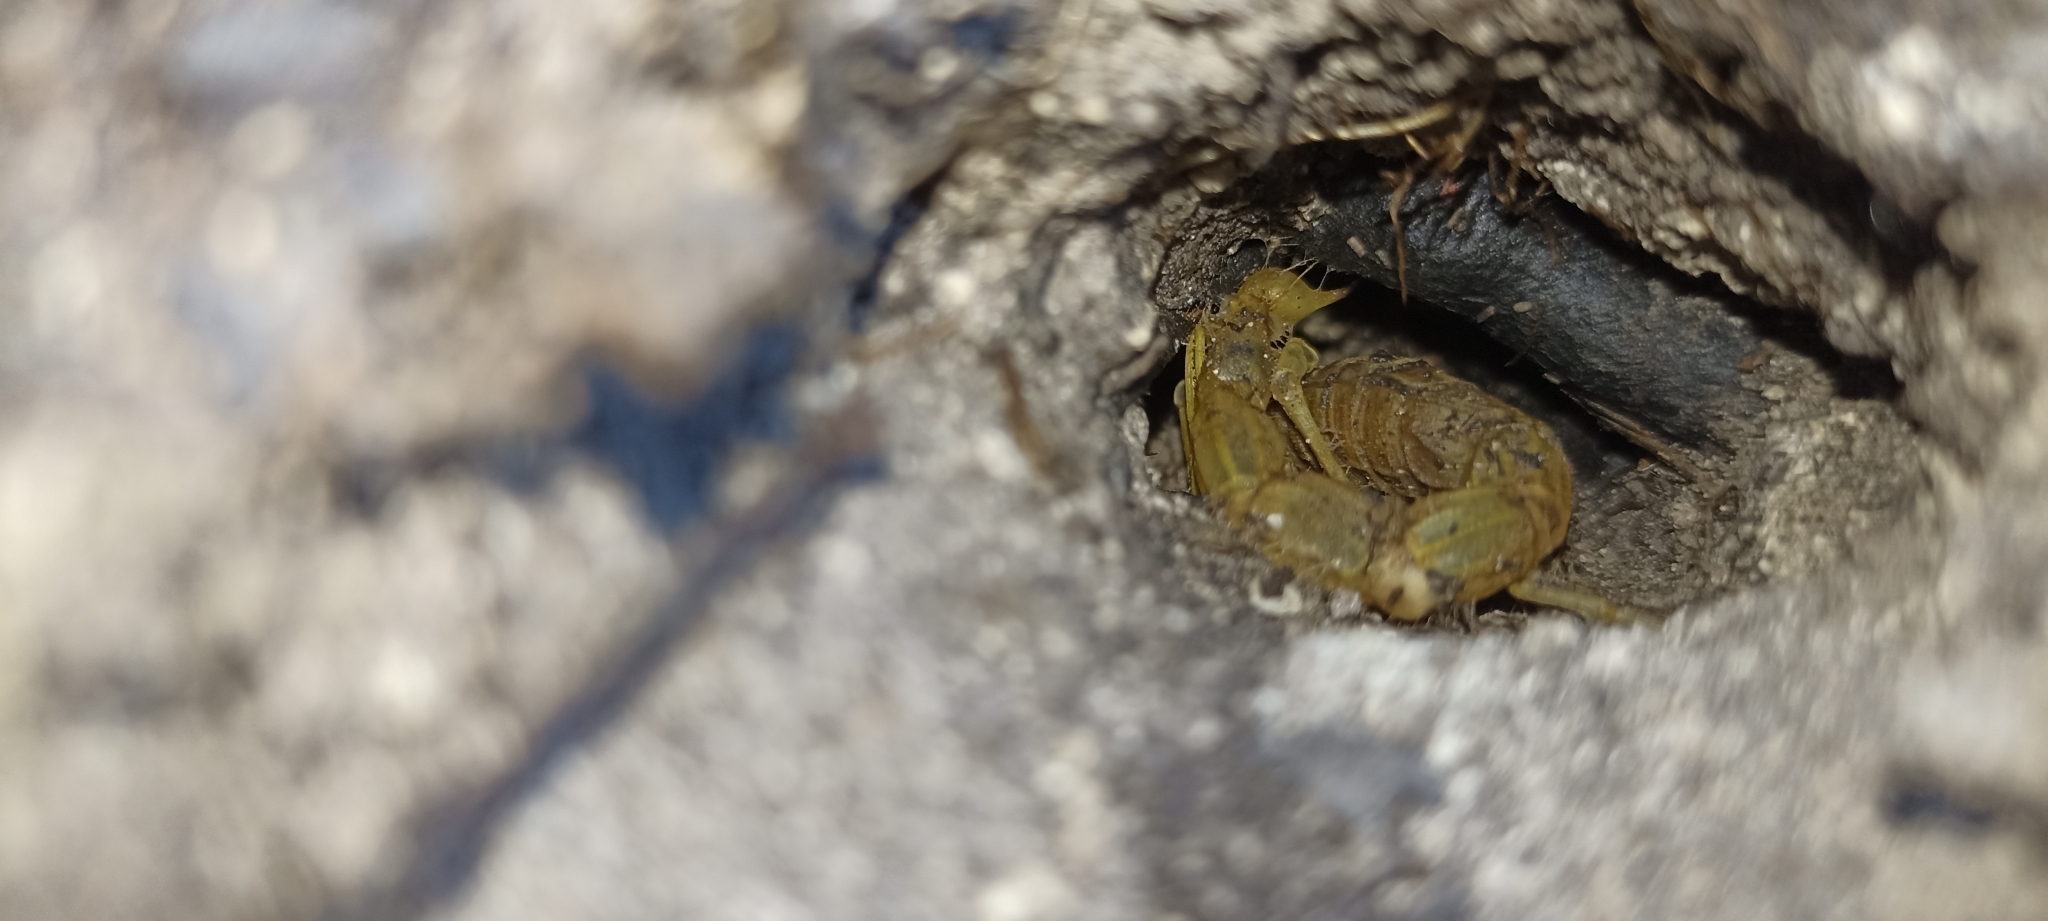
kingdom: Animalia
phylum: Arthropoda
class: Arachnida
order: Scorpiones
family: Buthidae
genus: Buthus
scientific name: Buthus occitanus
